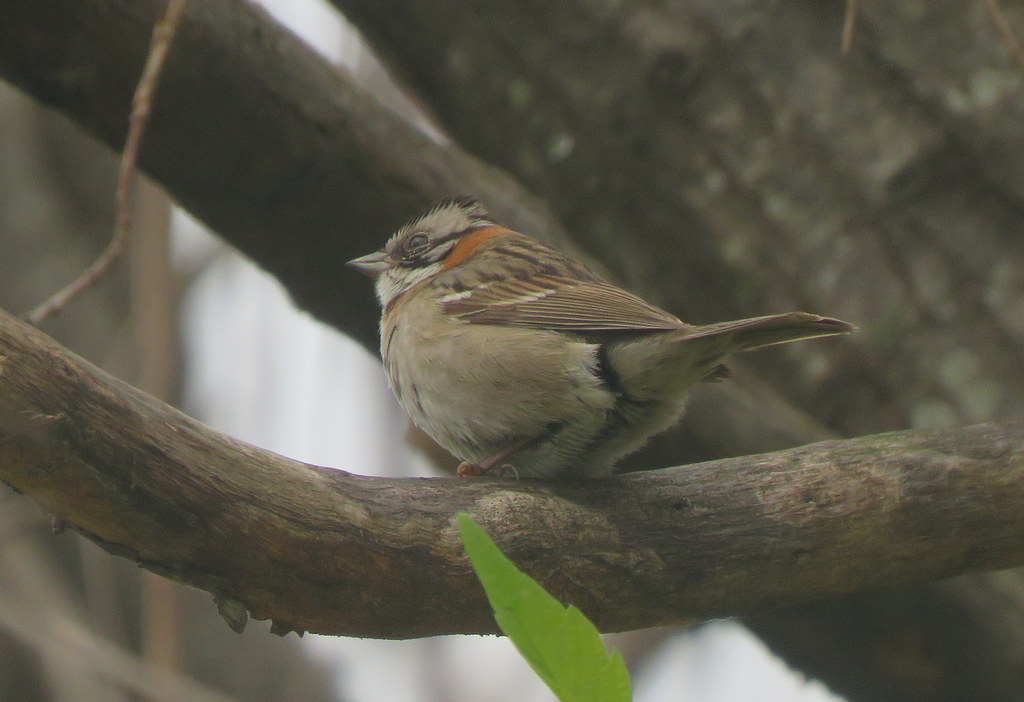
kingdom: Animalia
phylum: Chordata
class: Aves
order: Passeriformes
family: Passerellidae
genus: Zonotrichia
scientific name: Zonotrichia capensis
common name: Rufous-collared sparrow
